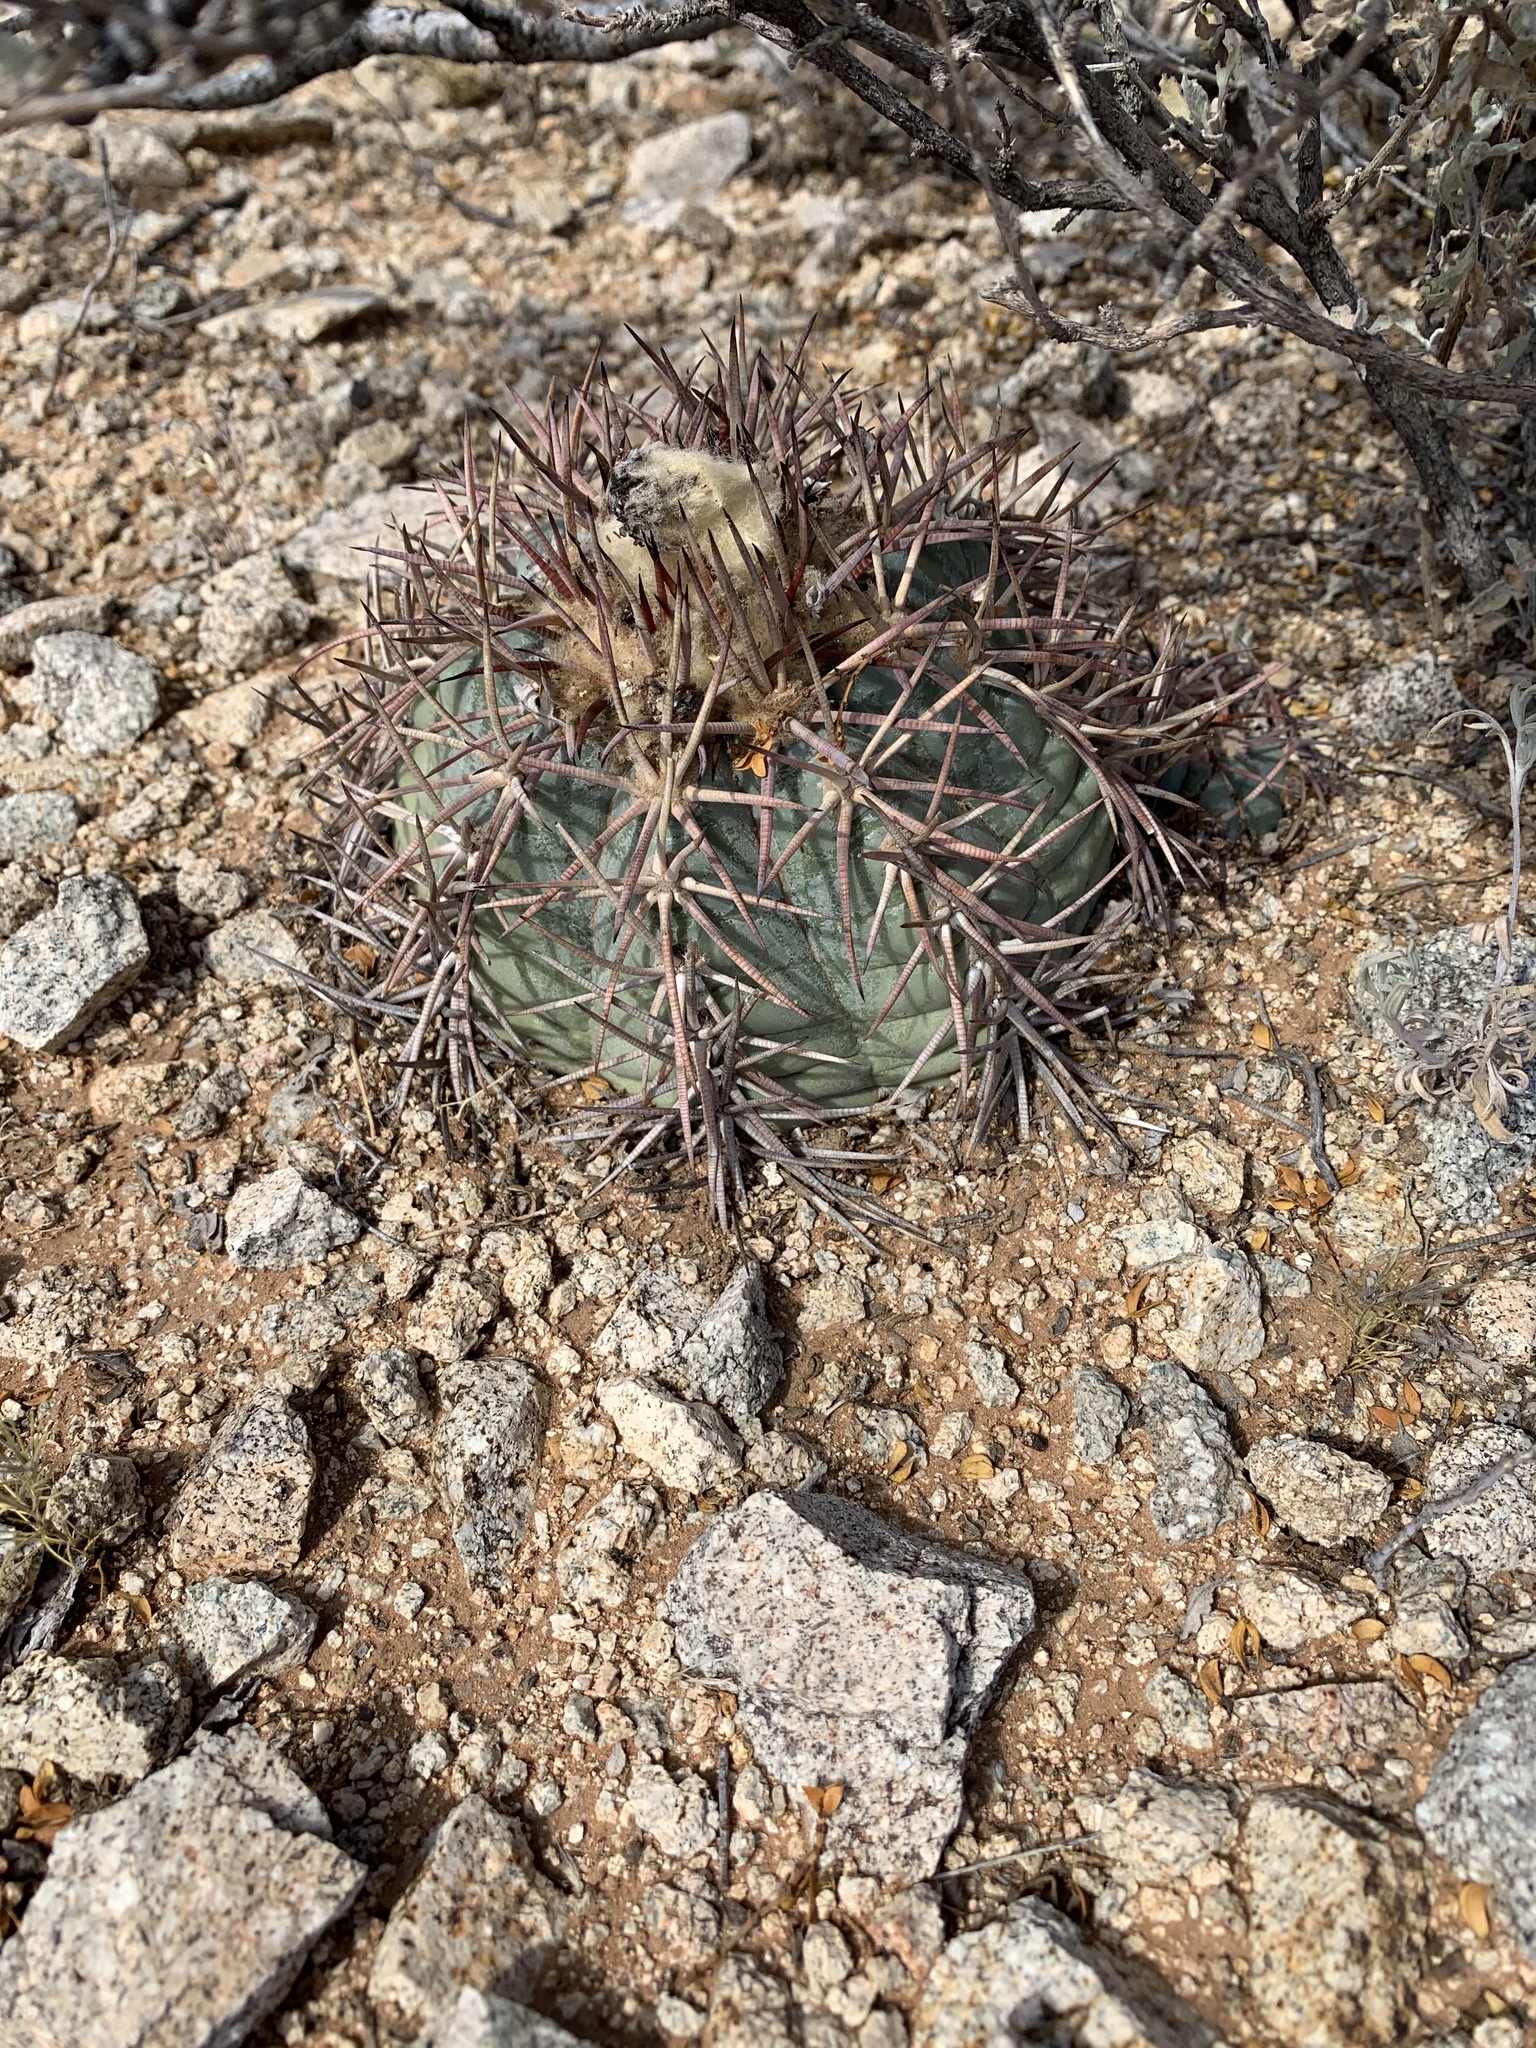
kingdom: Plantae
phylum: Tracheophyta
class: Magnoliopsida
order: Caryophyllales
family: Cactaceae
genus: Echinocactus
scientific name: Echinocactus horizonthalonius
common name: Devilshead
